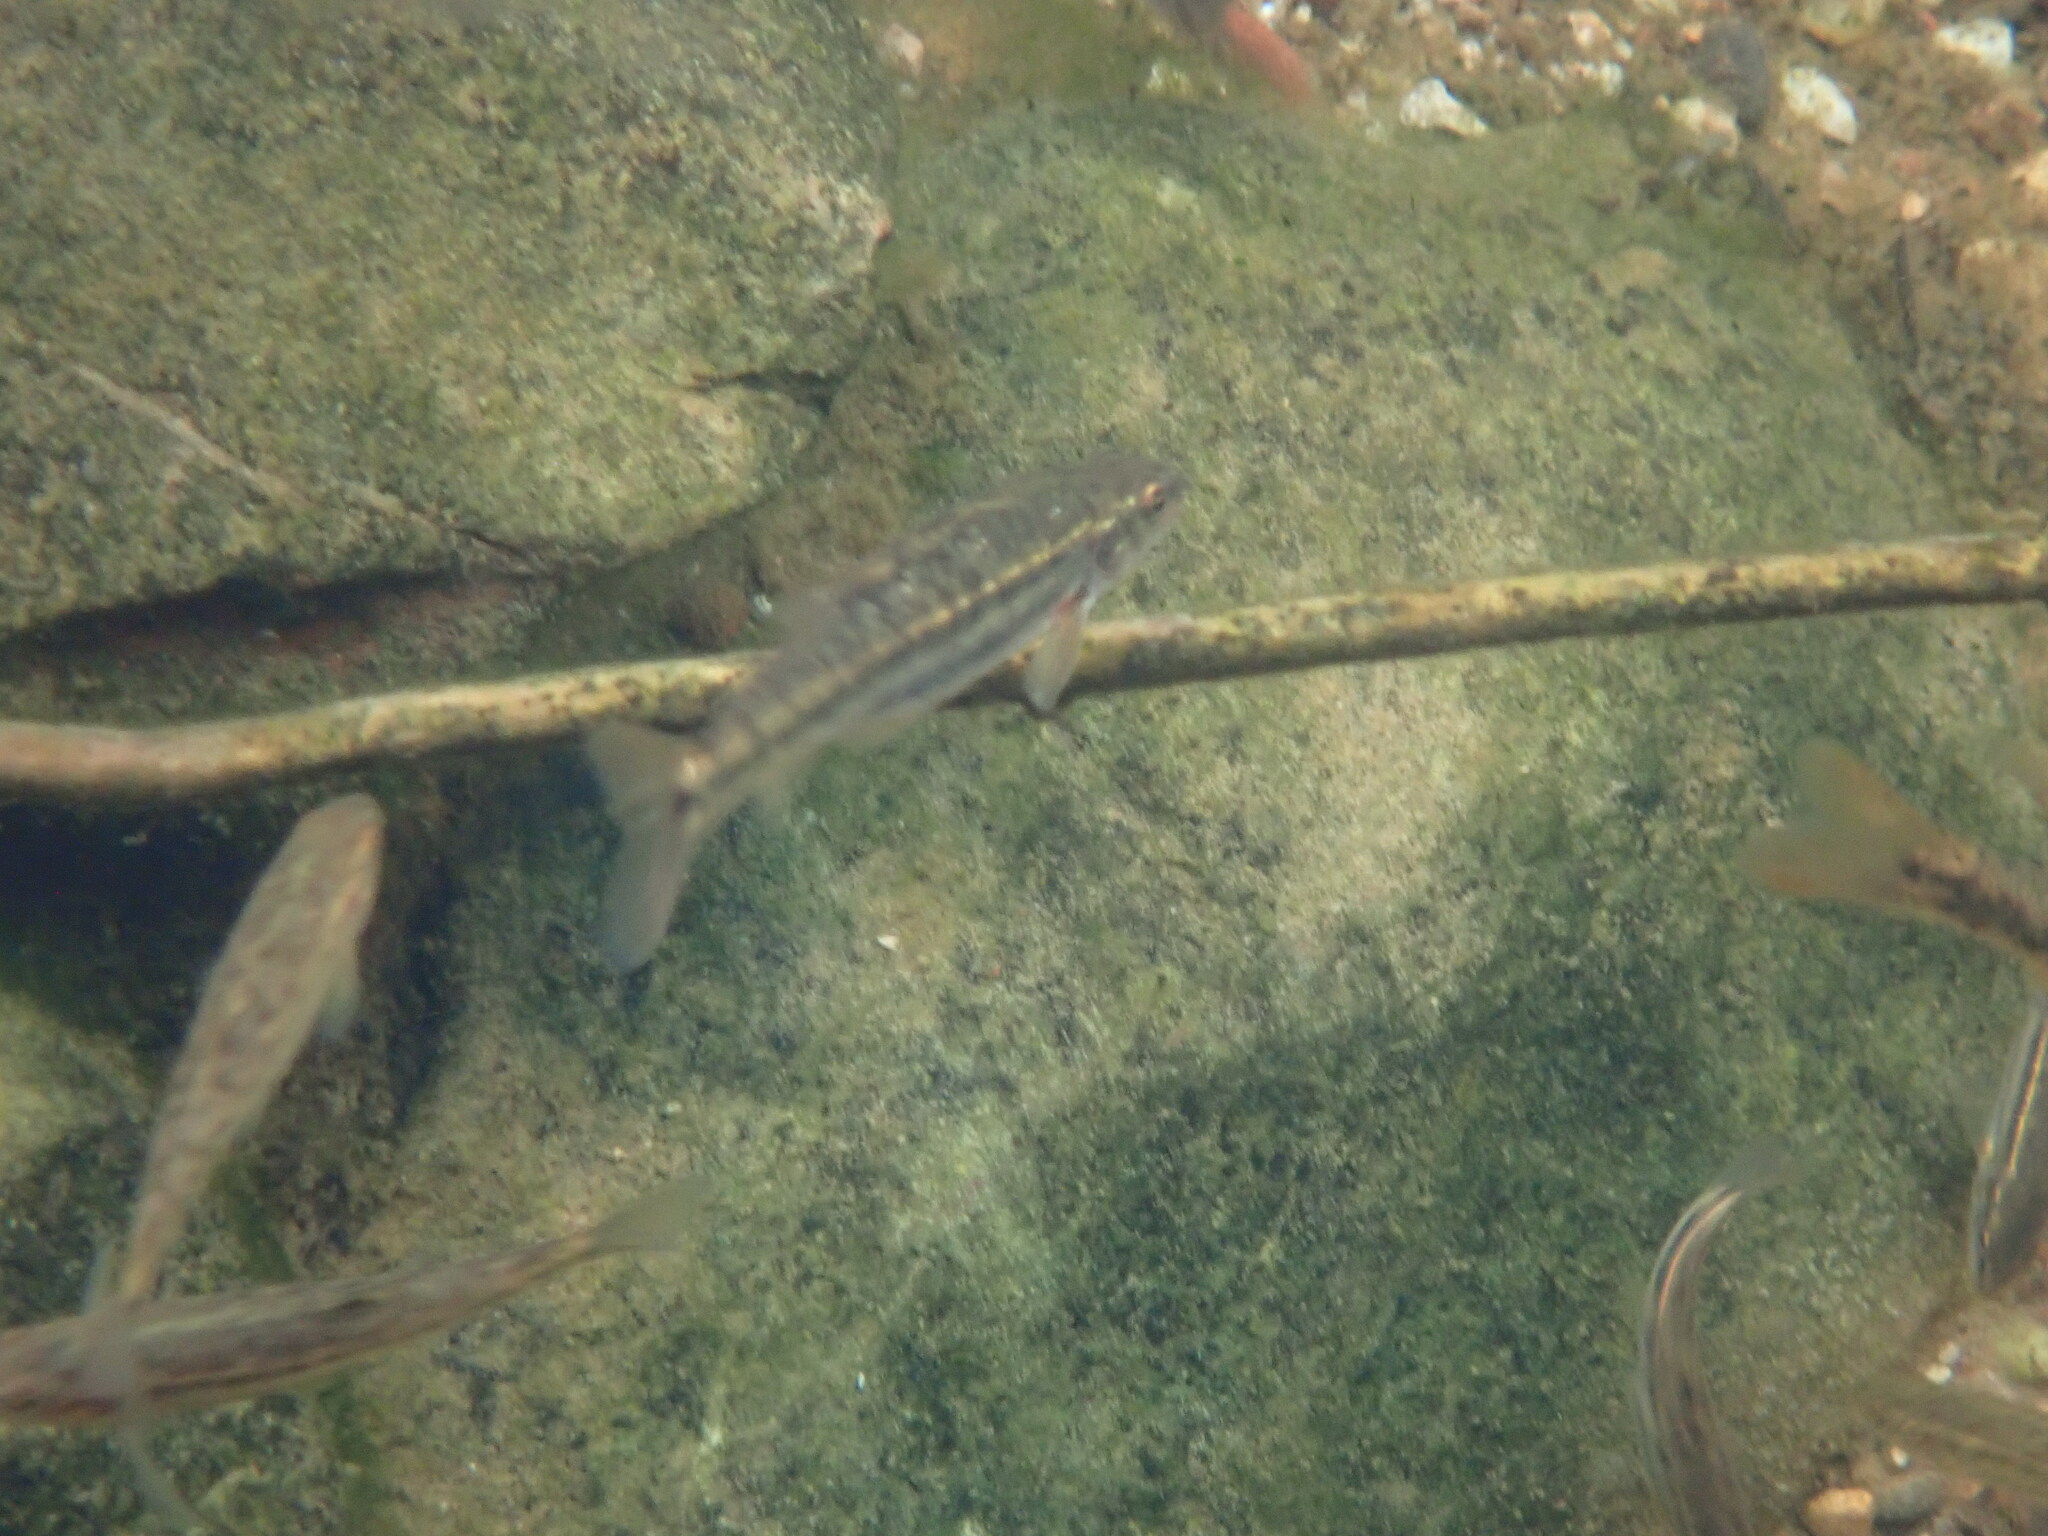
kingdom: Animalia
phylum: Chordata
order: Cypriniformes
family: Cyprinidae
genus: Rhinichthys
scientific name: Rhinichthys osculus
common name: Speckled dace
